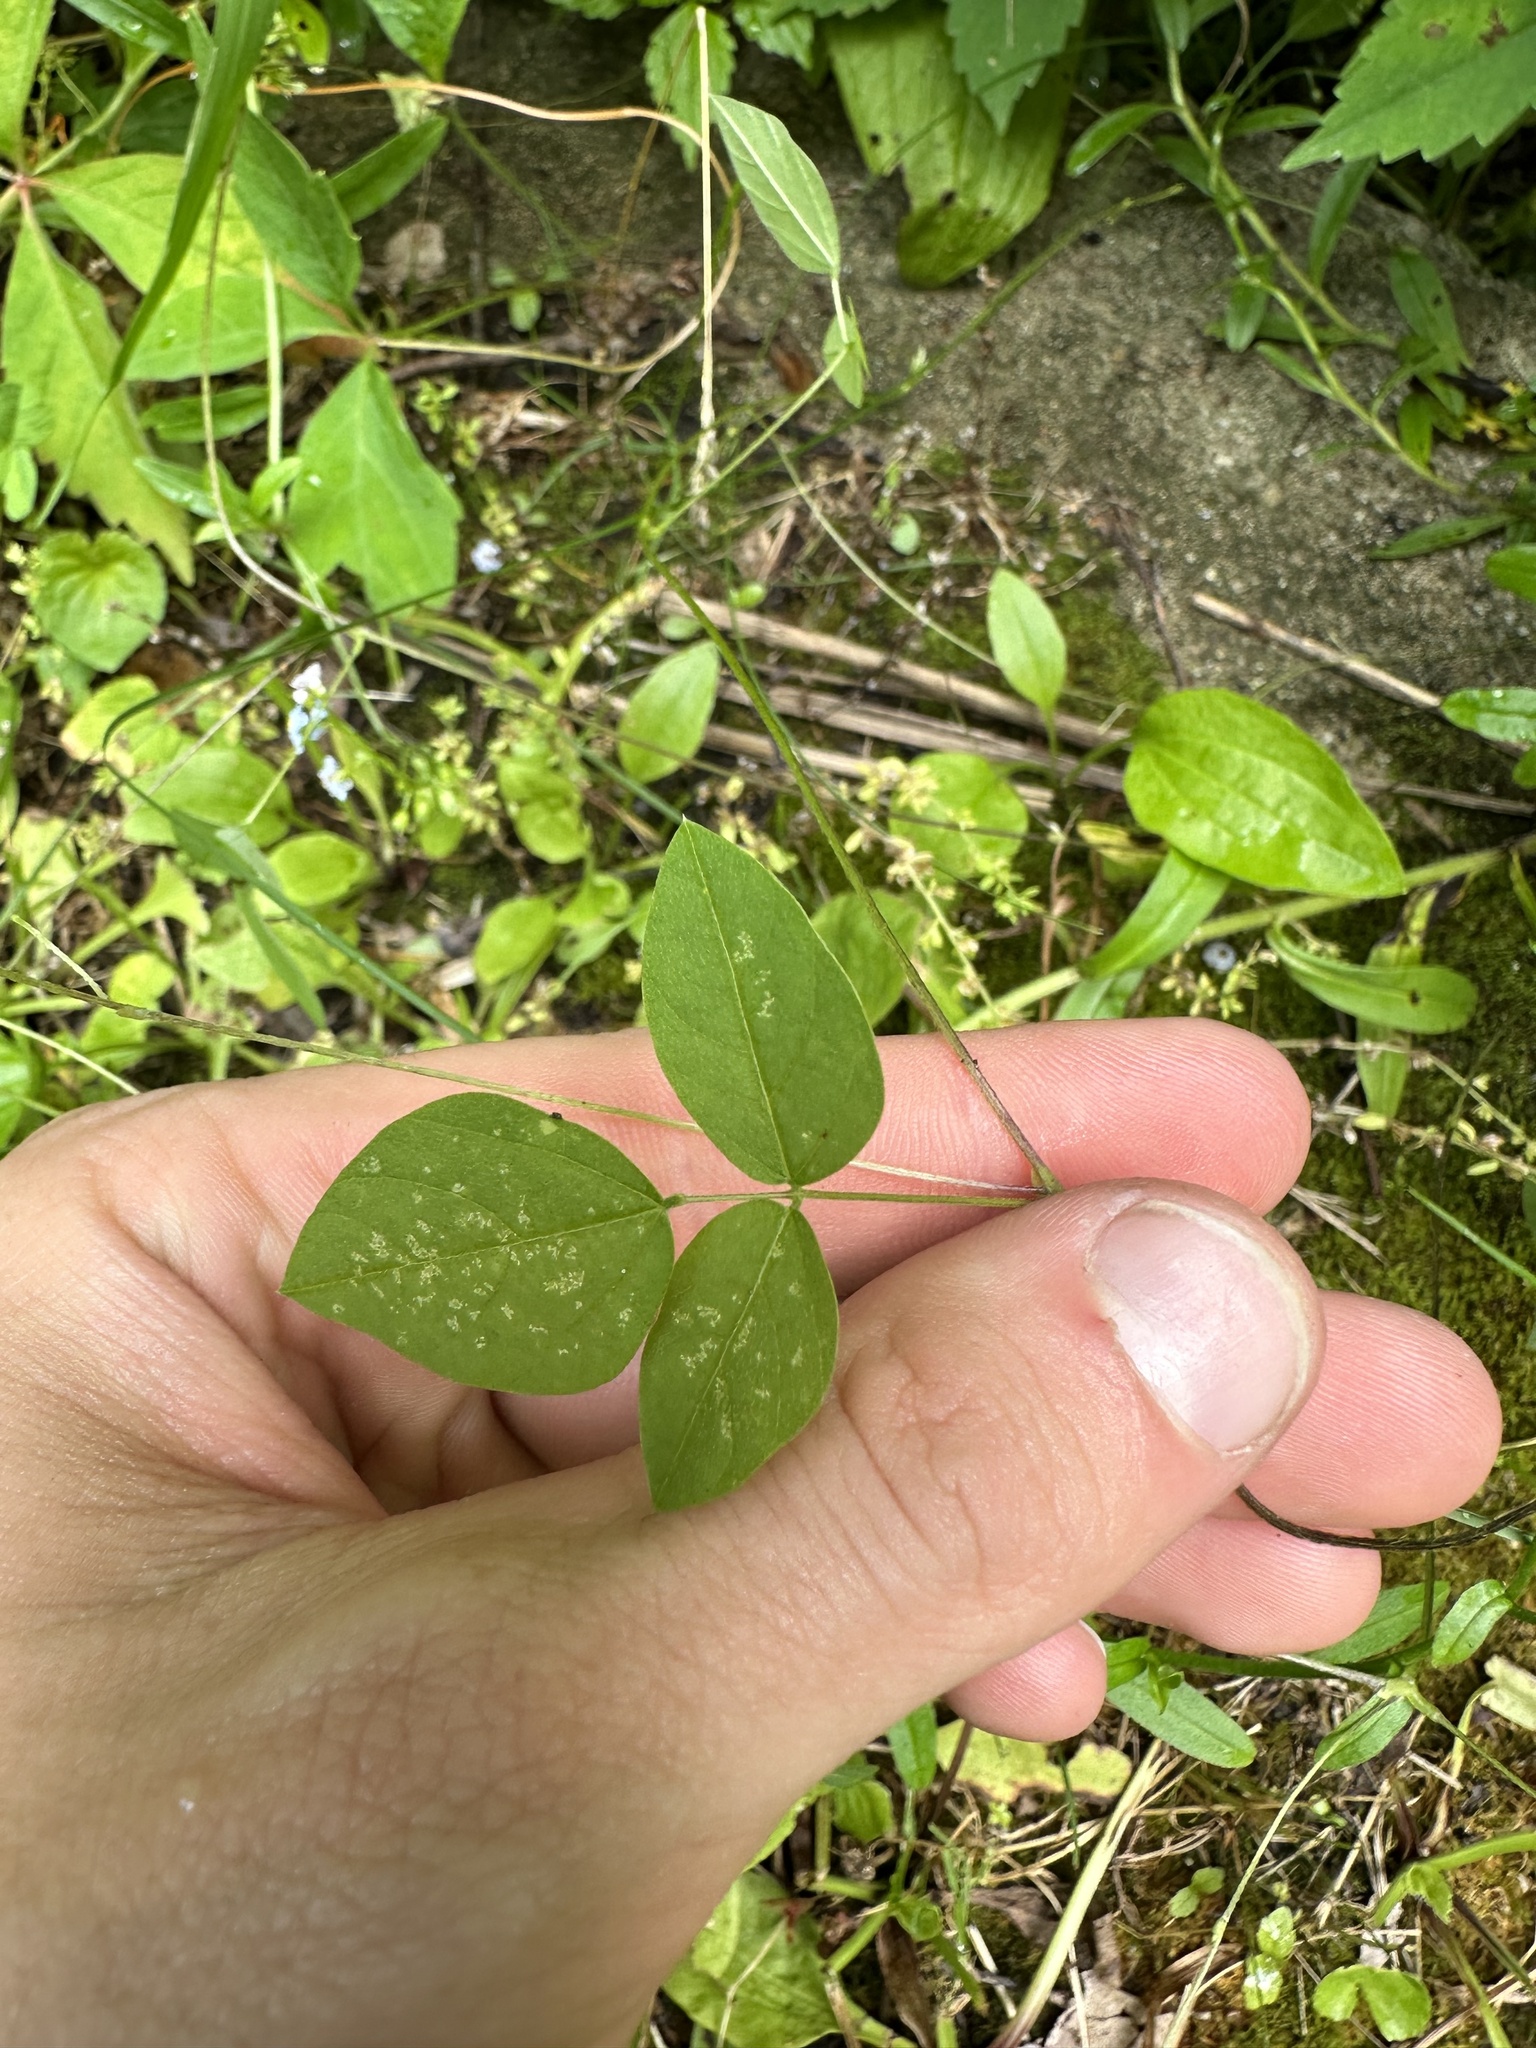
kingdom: Plantae
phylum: Tracheophyta
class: Magnoliopsida
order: Fabales
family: Fabaceae
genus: Amphicarpaea
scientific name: Amphicarpaea bracteata
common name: American hog peanut
